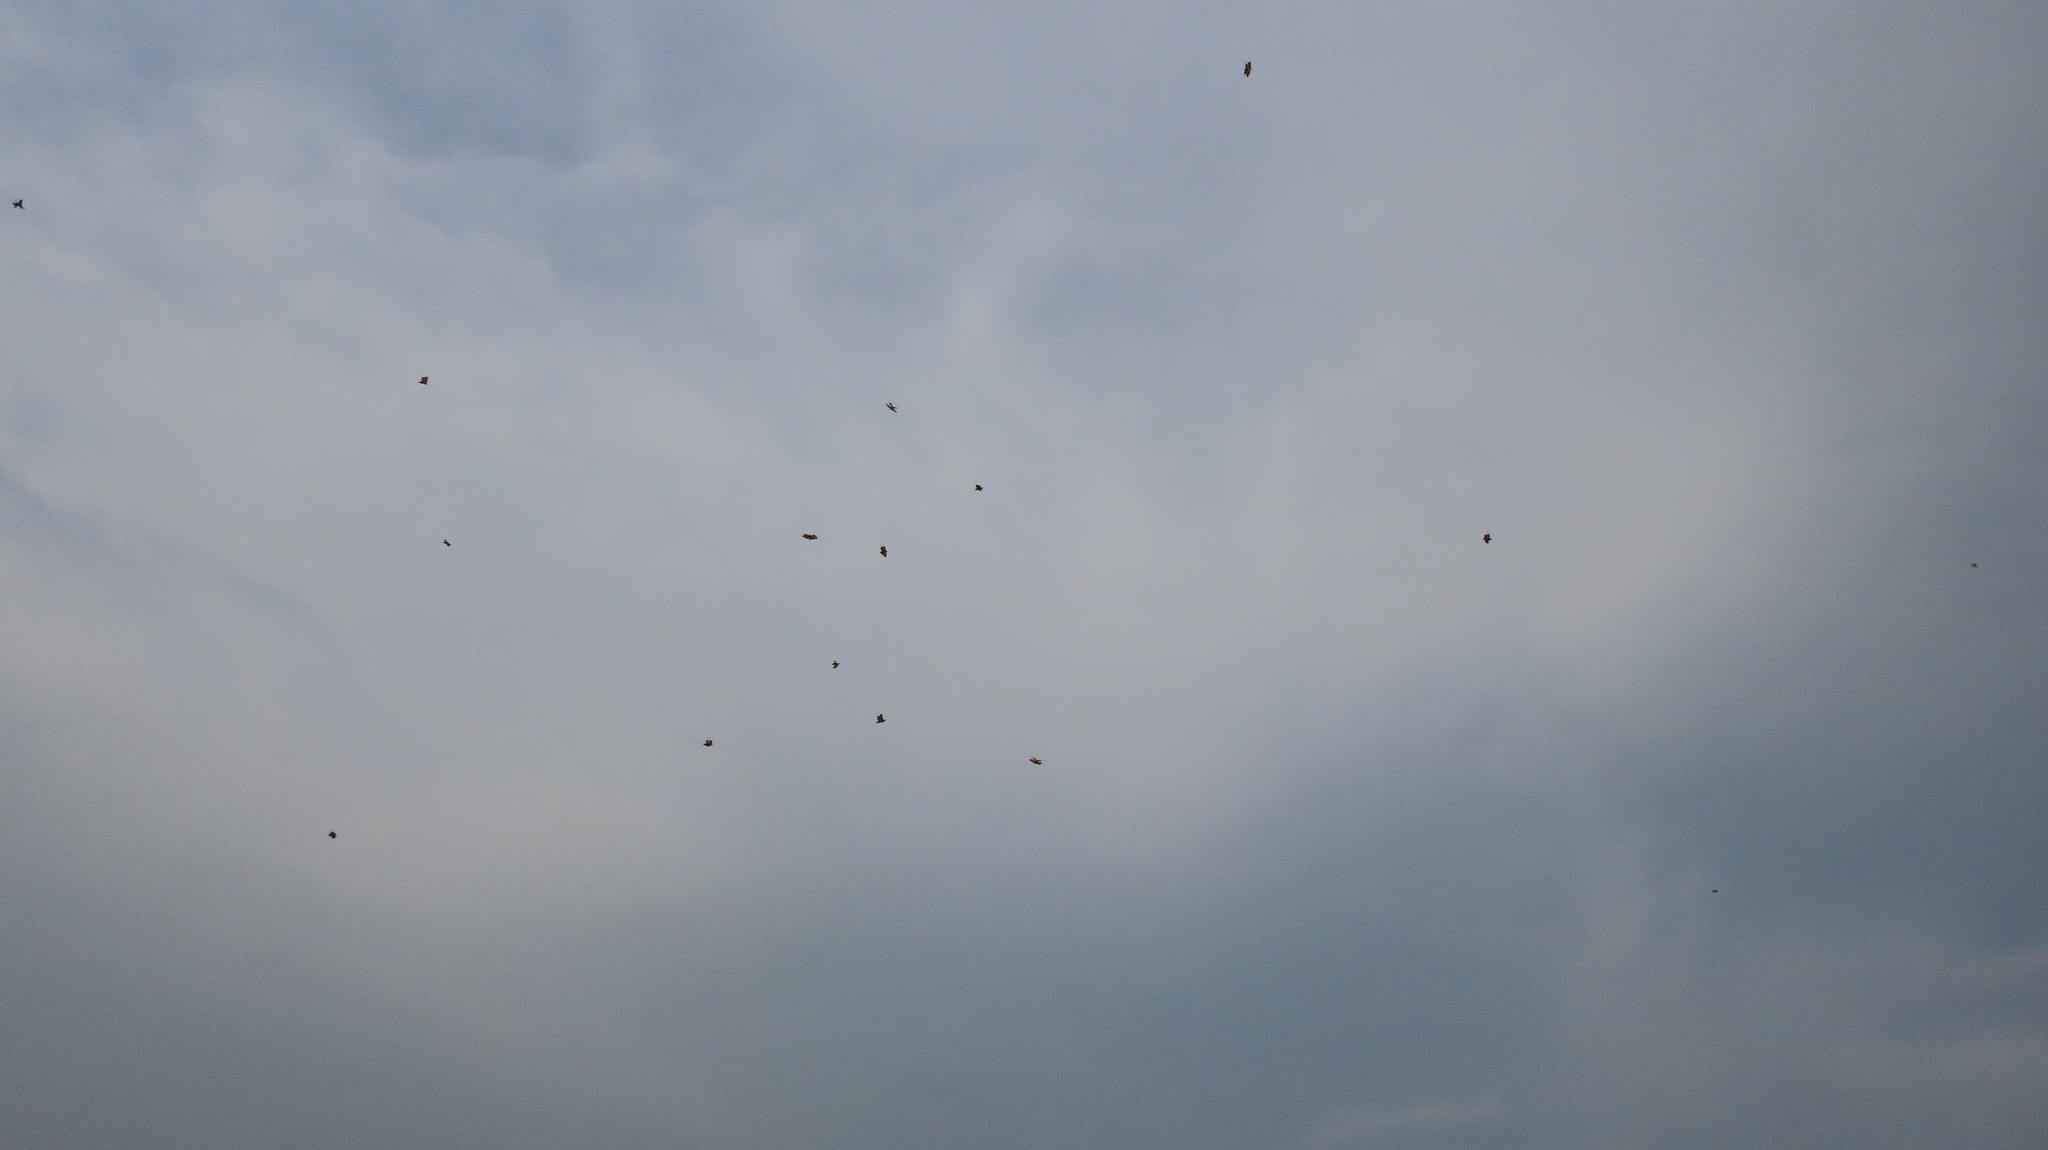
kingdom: Animalia
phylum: Arthropoda
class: Insecta
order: Odonata
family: Libellulidae
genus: Rhyothemis
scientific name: Rhyothemis variegata
